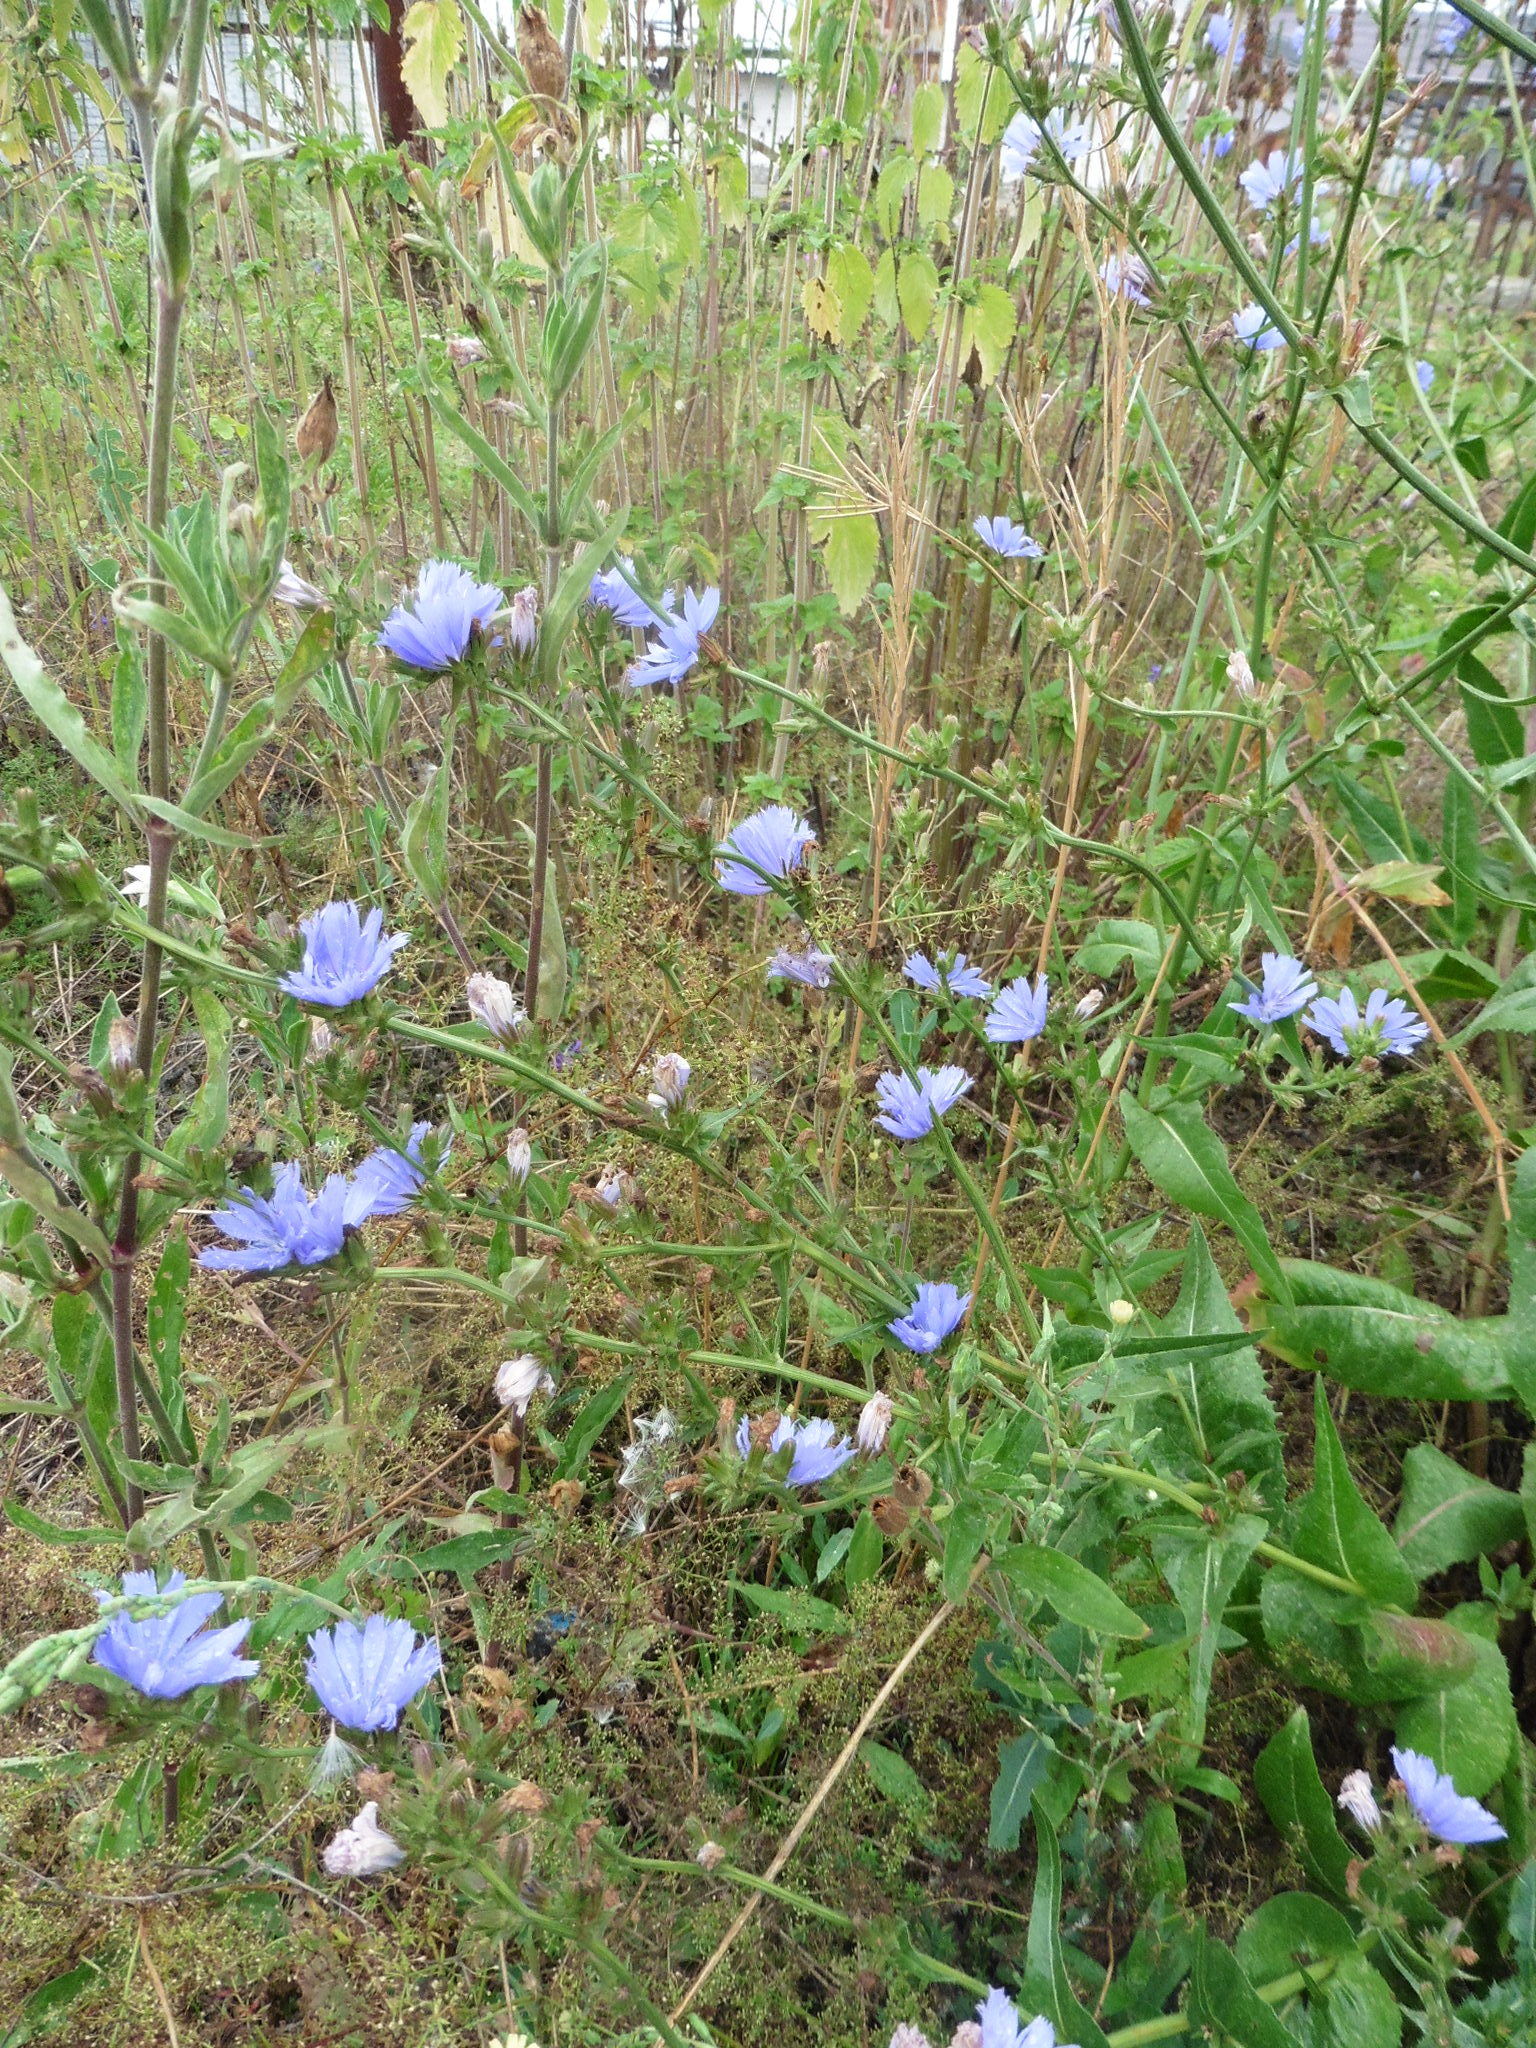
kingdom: Plantae
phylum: Tracheophyta
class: Magnoliopsida
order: Asterales
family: Asteraceae
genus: Cichorium
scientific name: Cichorium intybus
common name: Chicory
